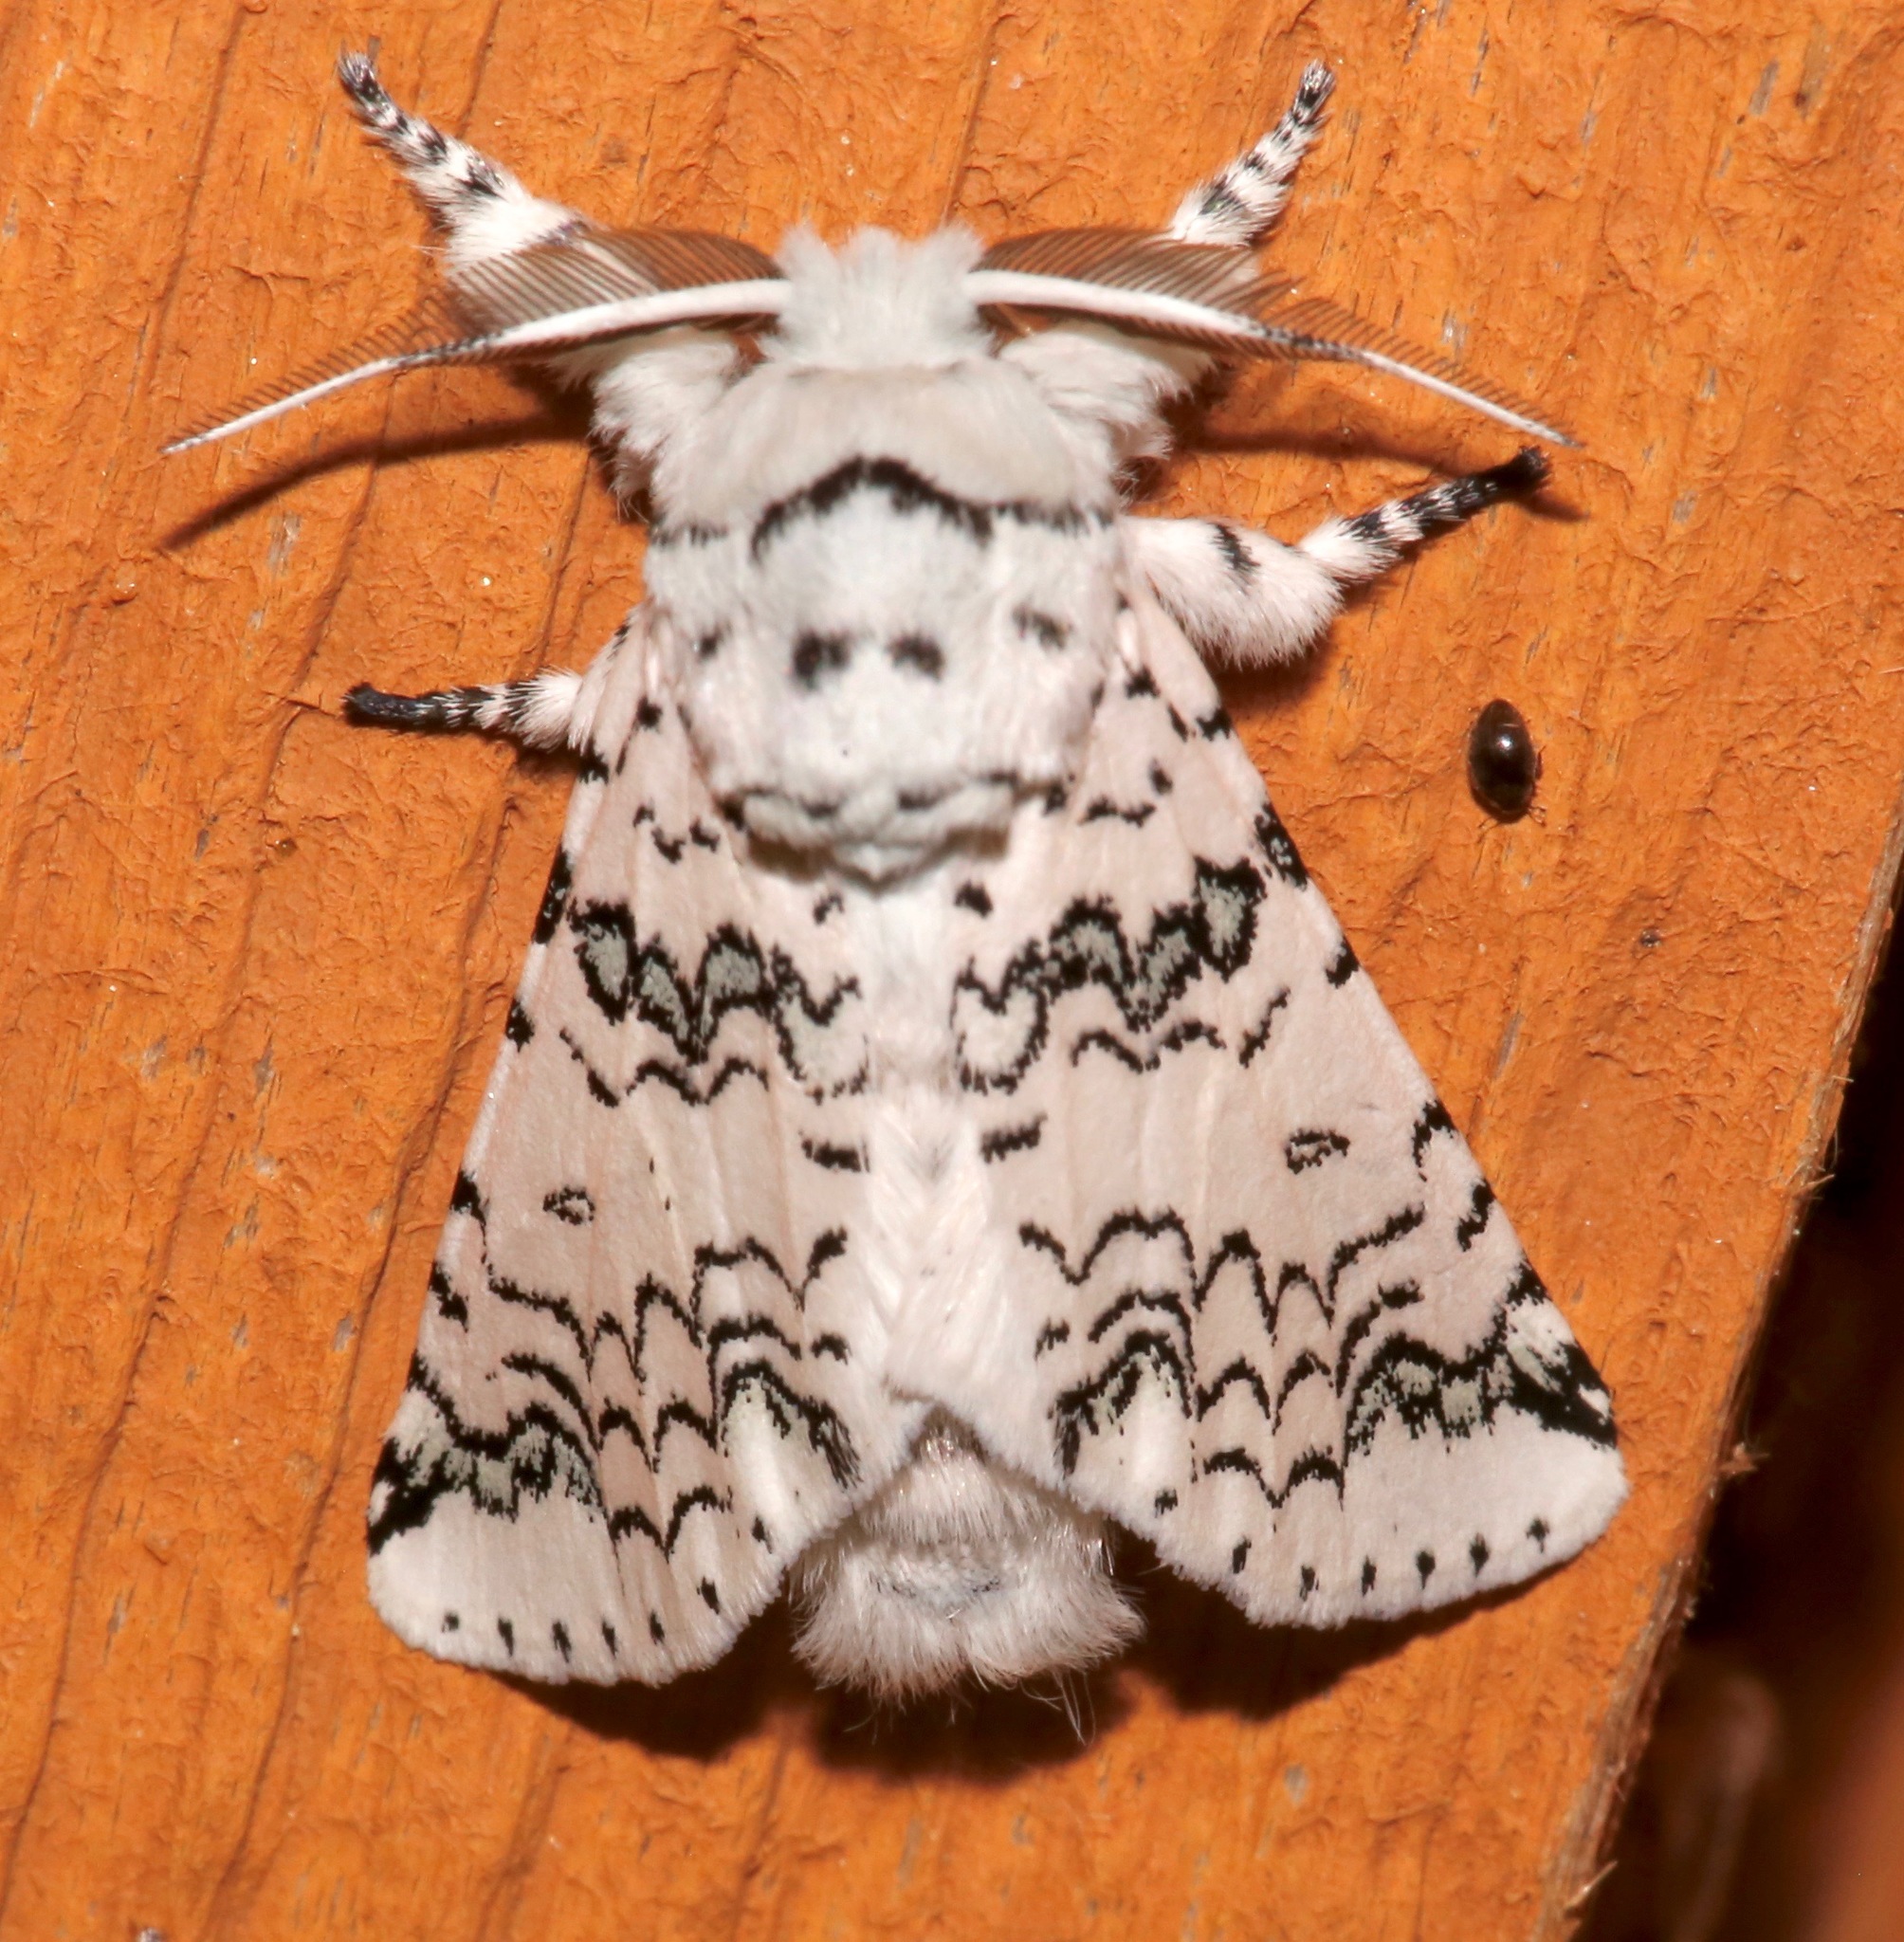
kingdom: Animalia
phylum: Arthropoda
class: Insecta
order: Lepidoptera
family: Notodontidae
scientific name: Notodontidae
